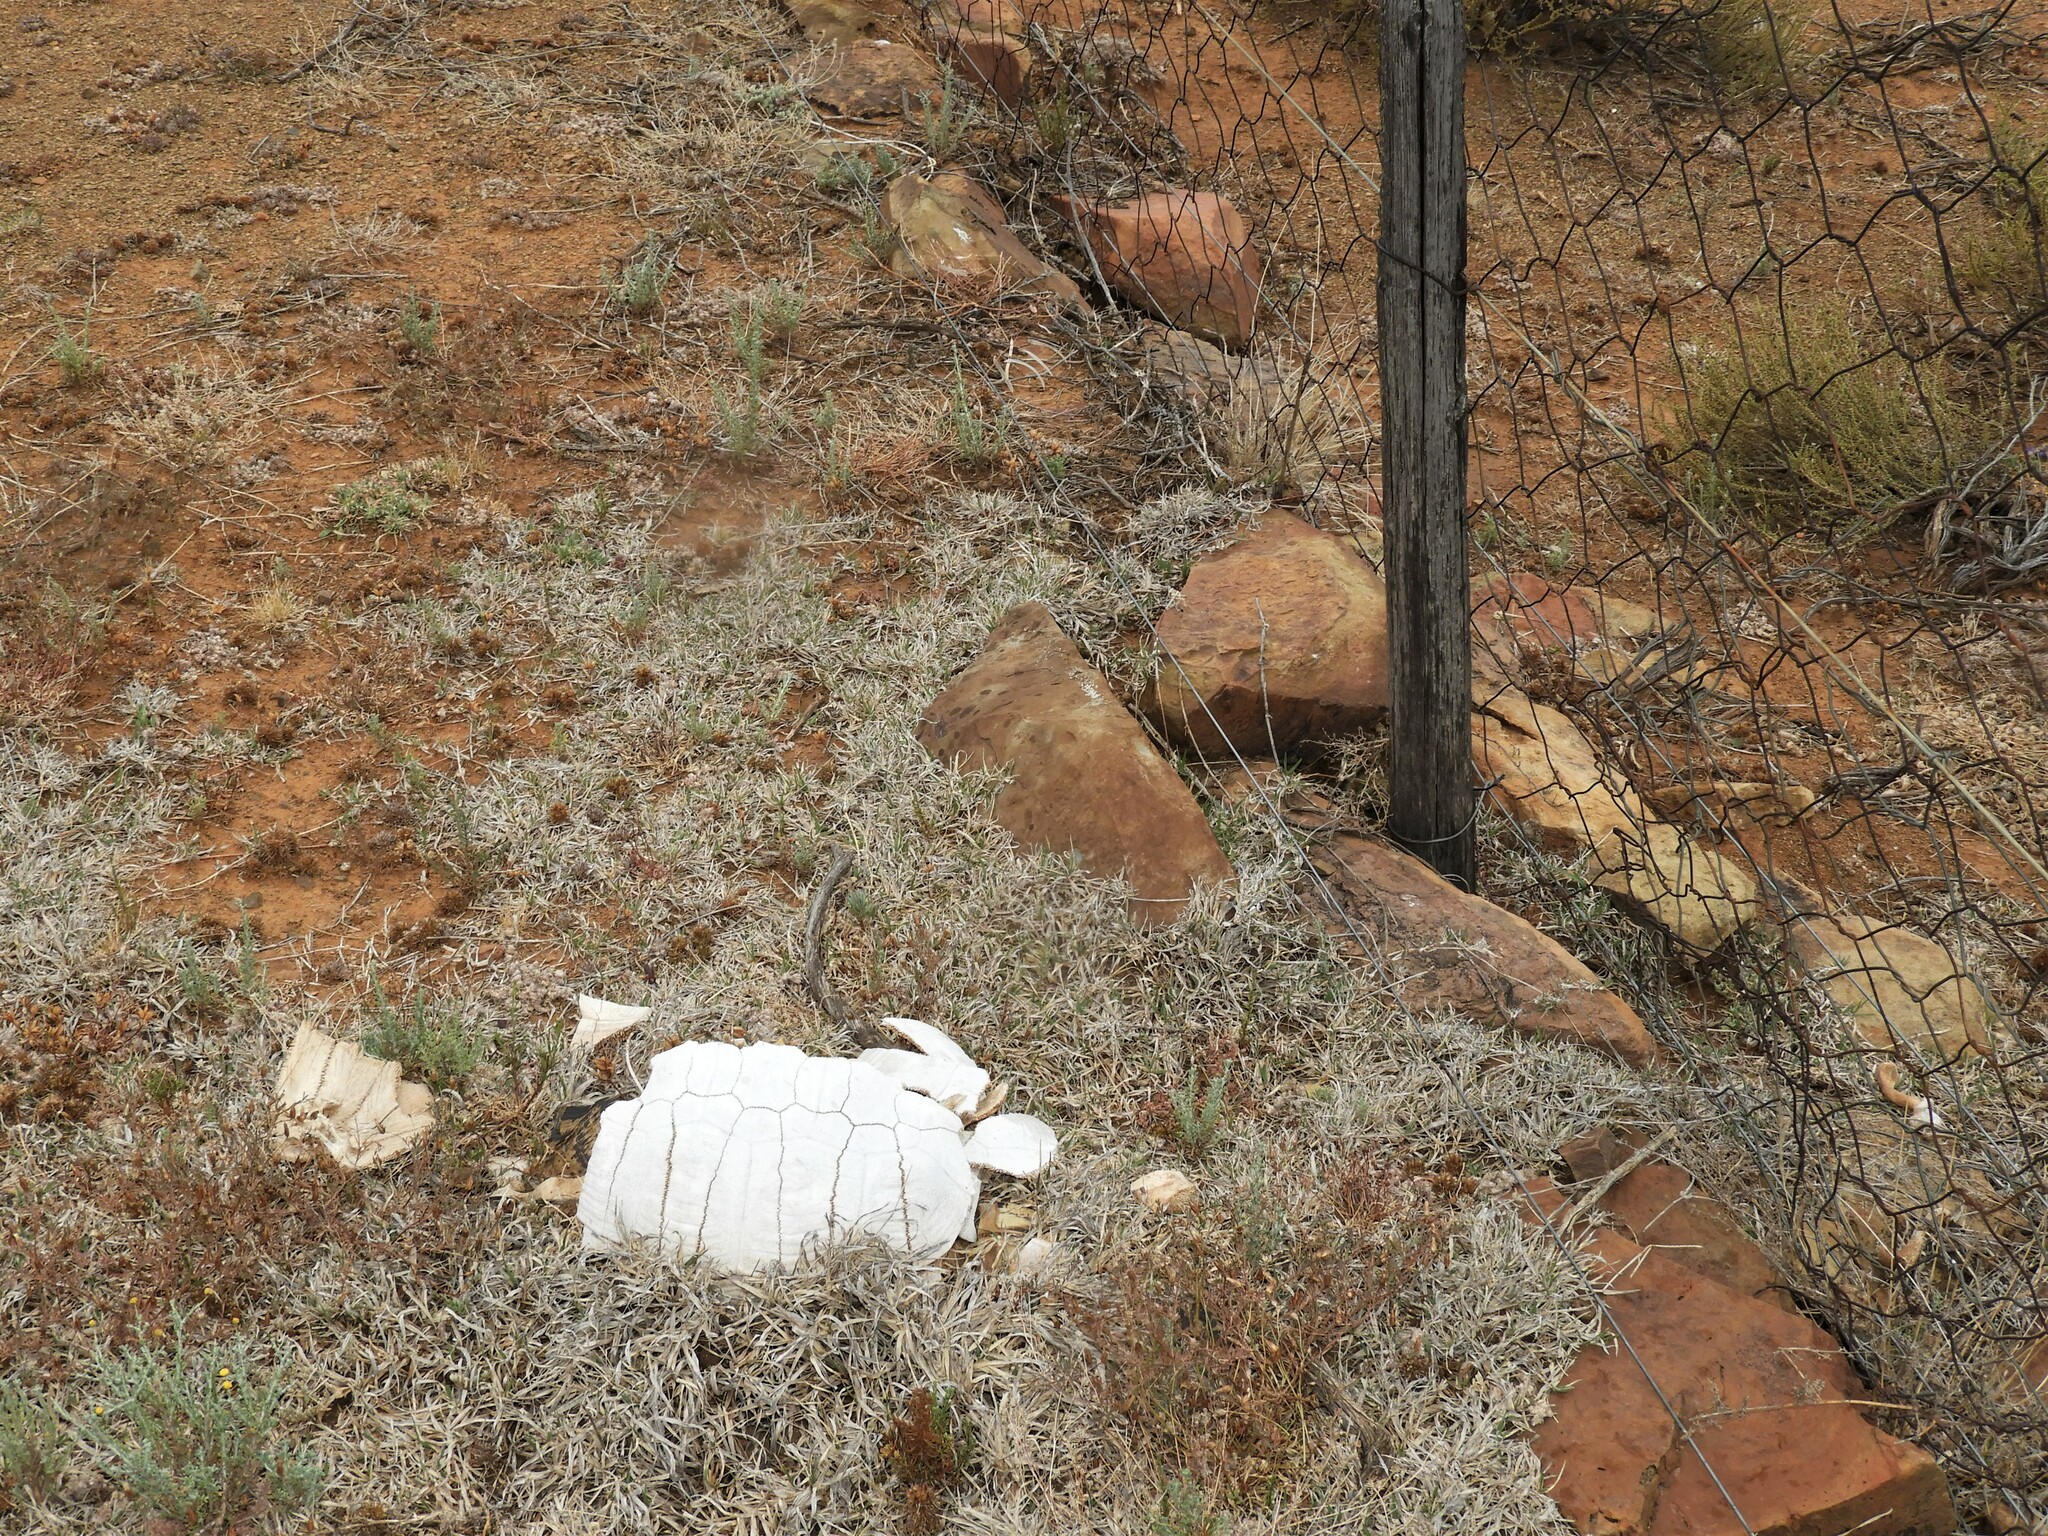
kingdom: Animalia
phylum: Chordata
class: Testudines
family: Testudinidae
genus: Stigmochelys
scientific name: Stigmochelys pardalis
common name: Leopard tortoise
